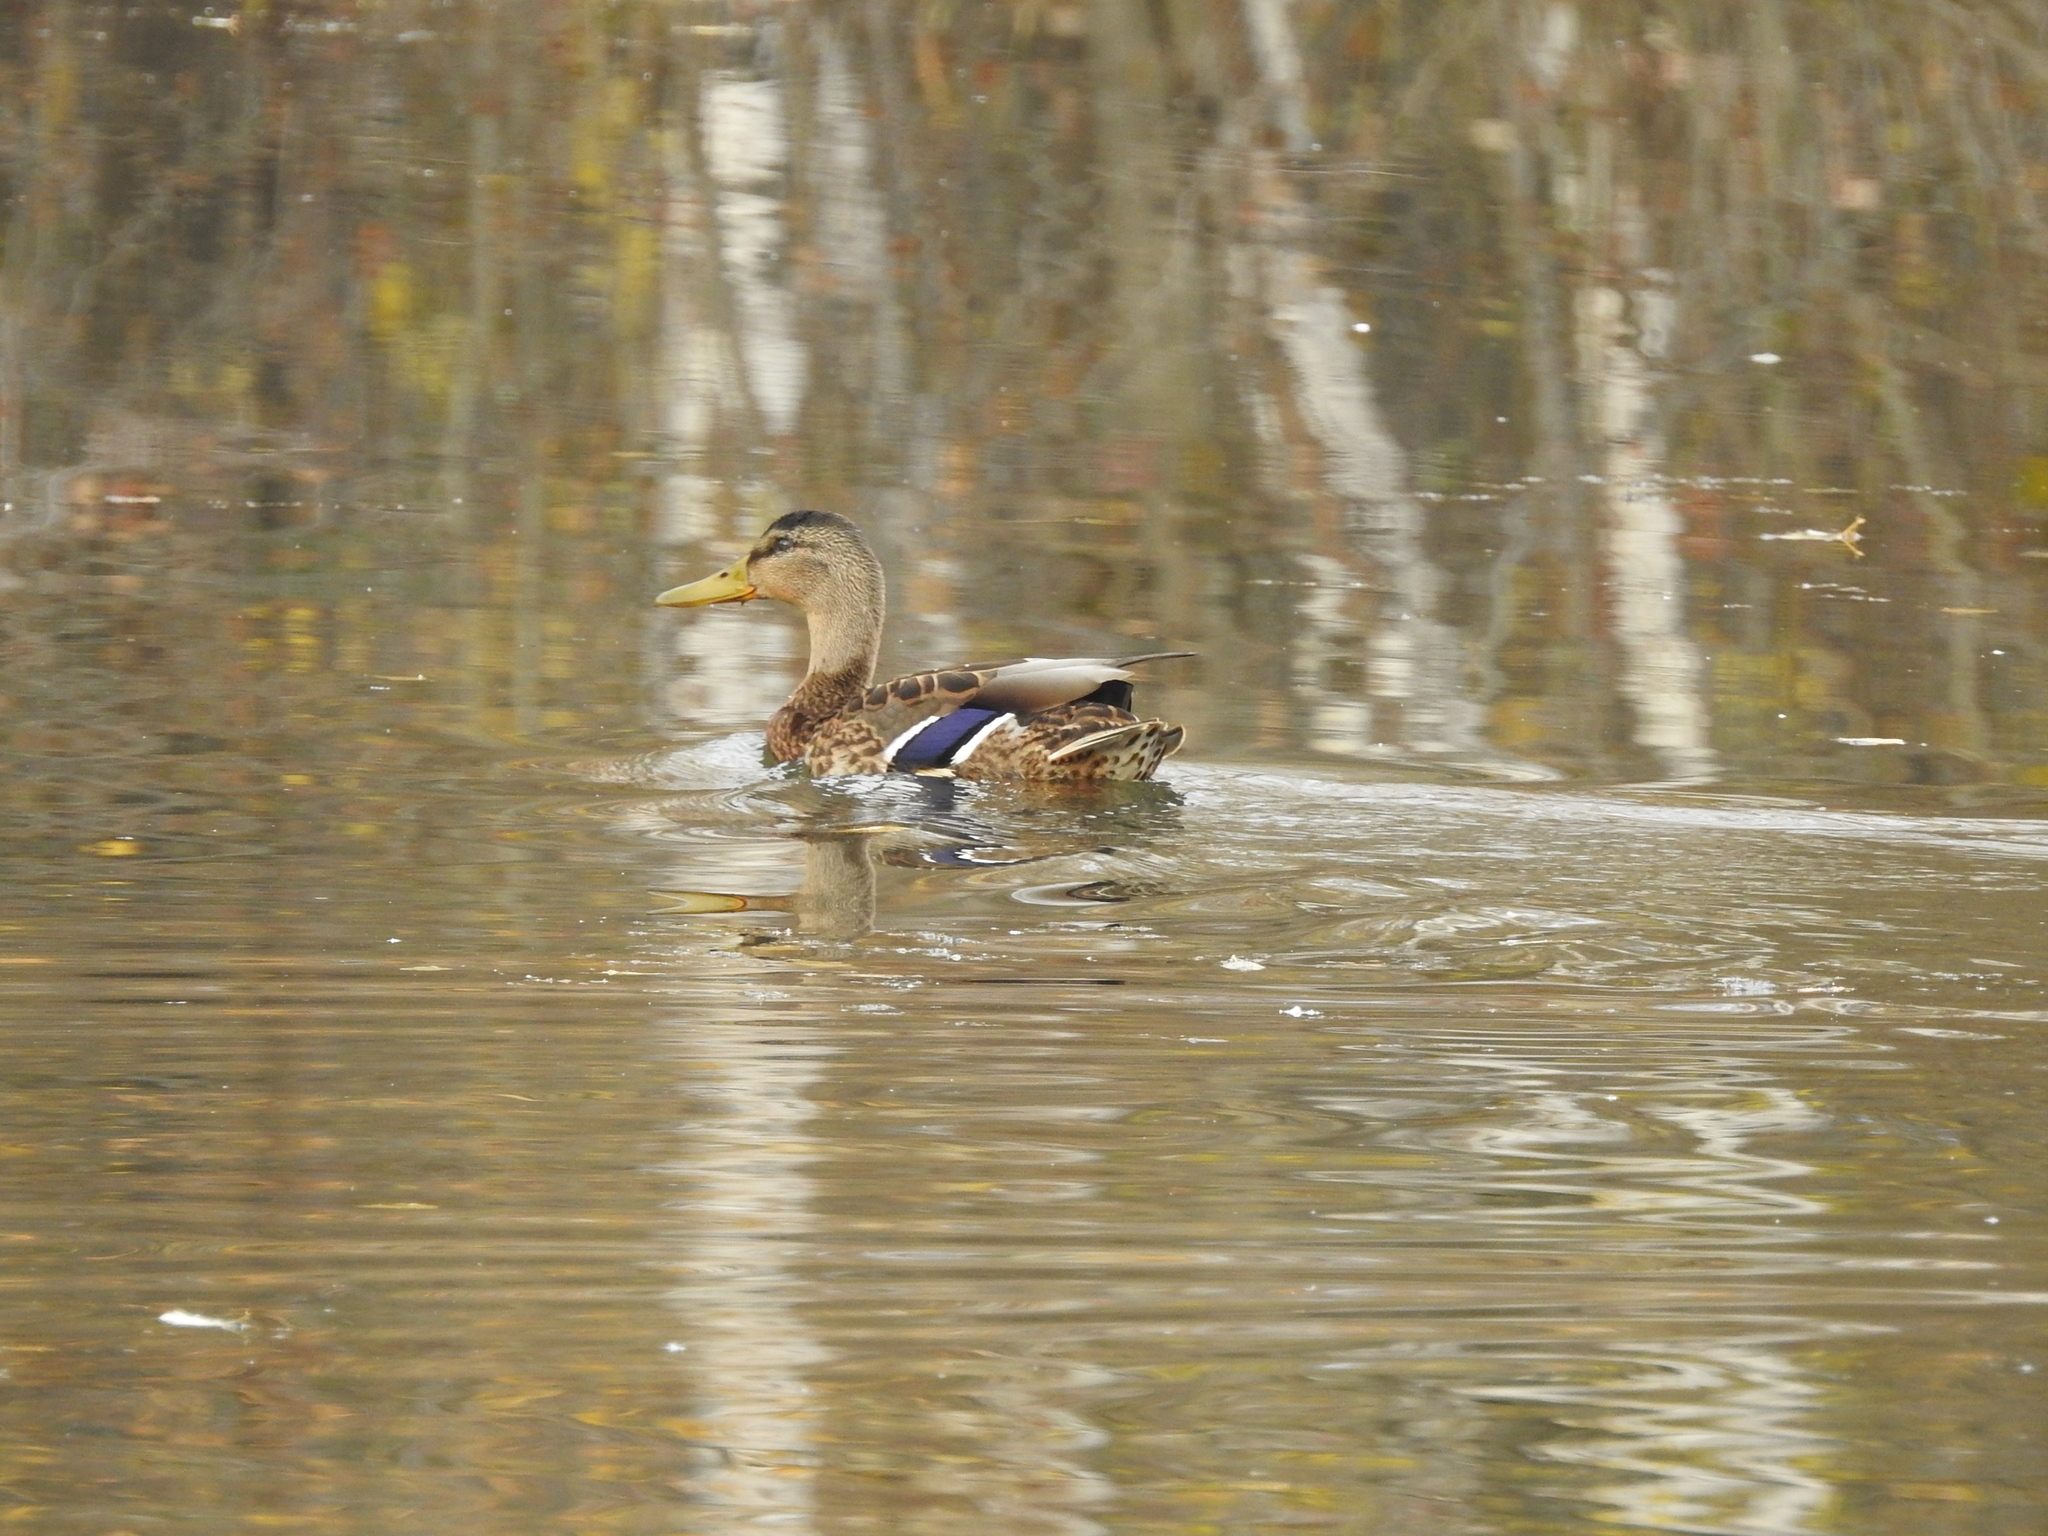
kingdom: Animalia
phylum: Chordata
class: Aves
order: Anseriformes
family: Anatidae
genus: Anas
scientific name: Anas platyrhynchos
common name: Mallard
